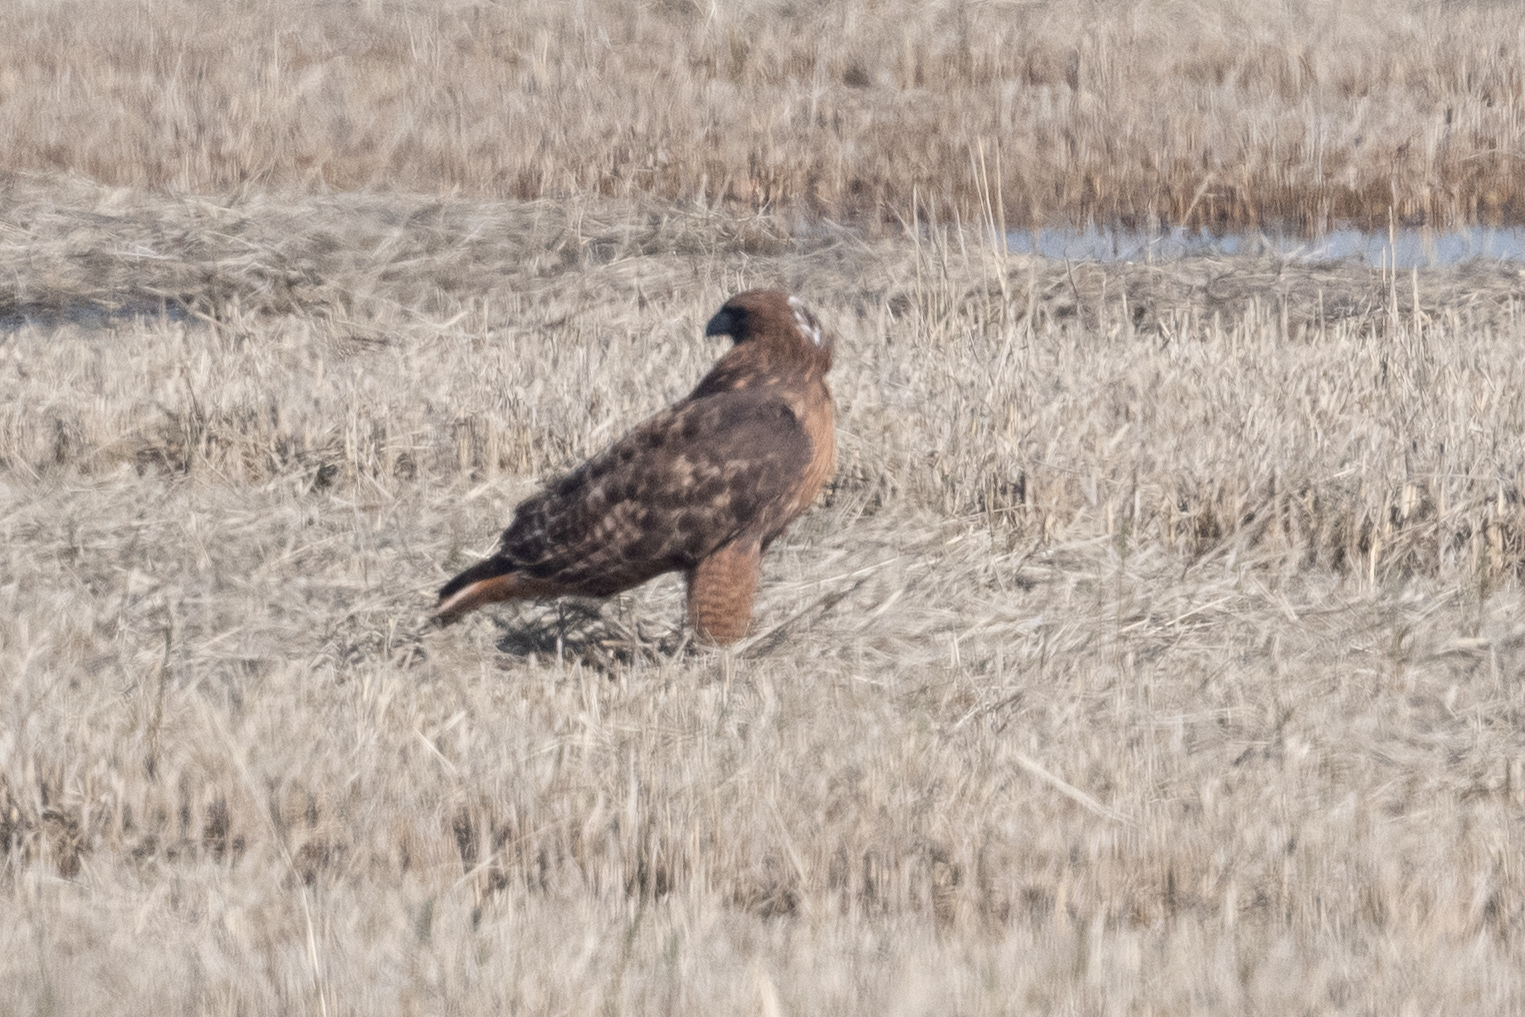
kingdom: Animalia
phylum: Chordata
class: Aves
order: Accipitriformes
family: Accipitridae
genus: Buteo
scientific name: Buteo jamaicensis
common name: Red-tailed hawk
